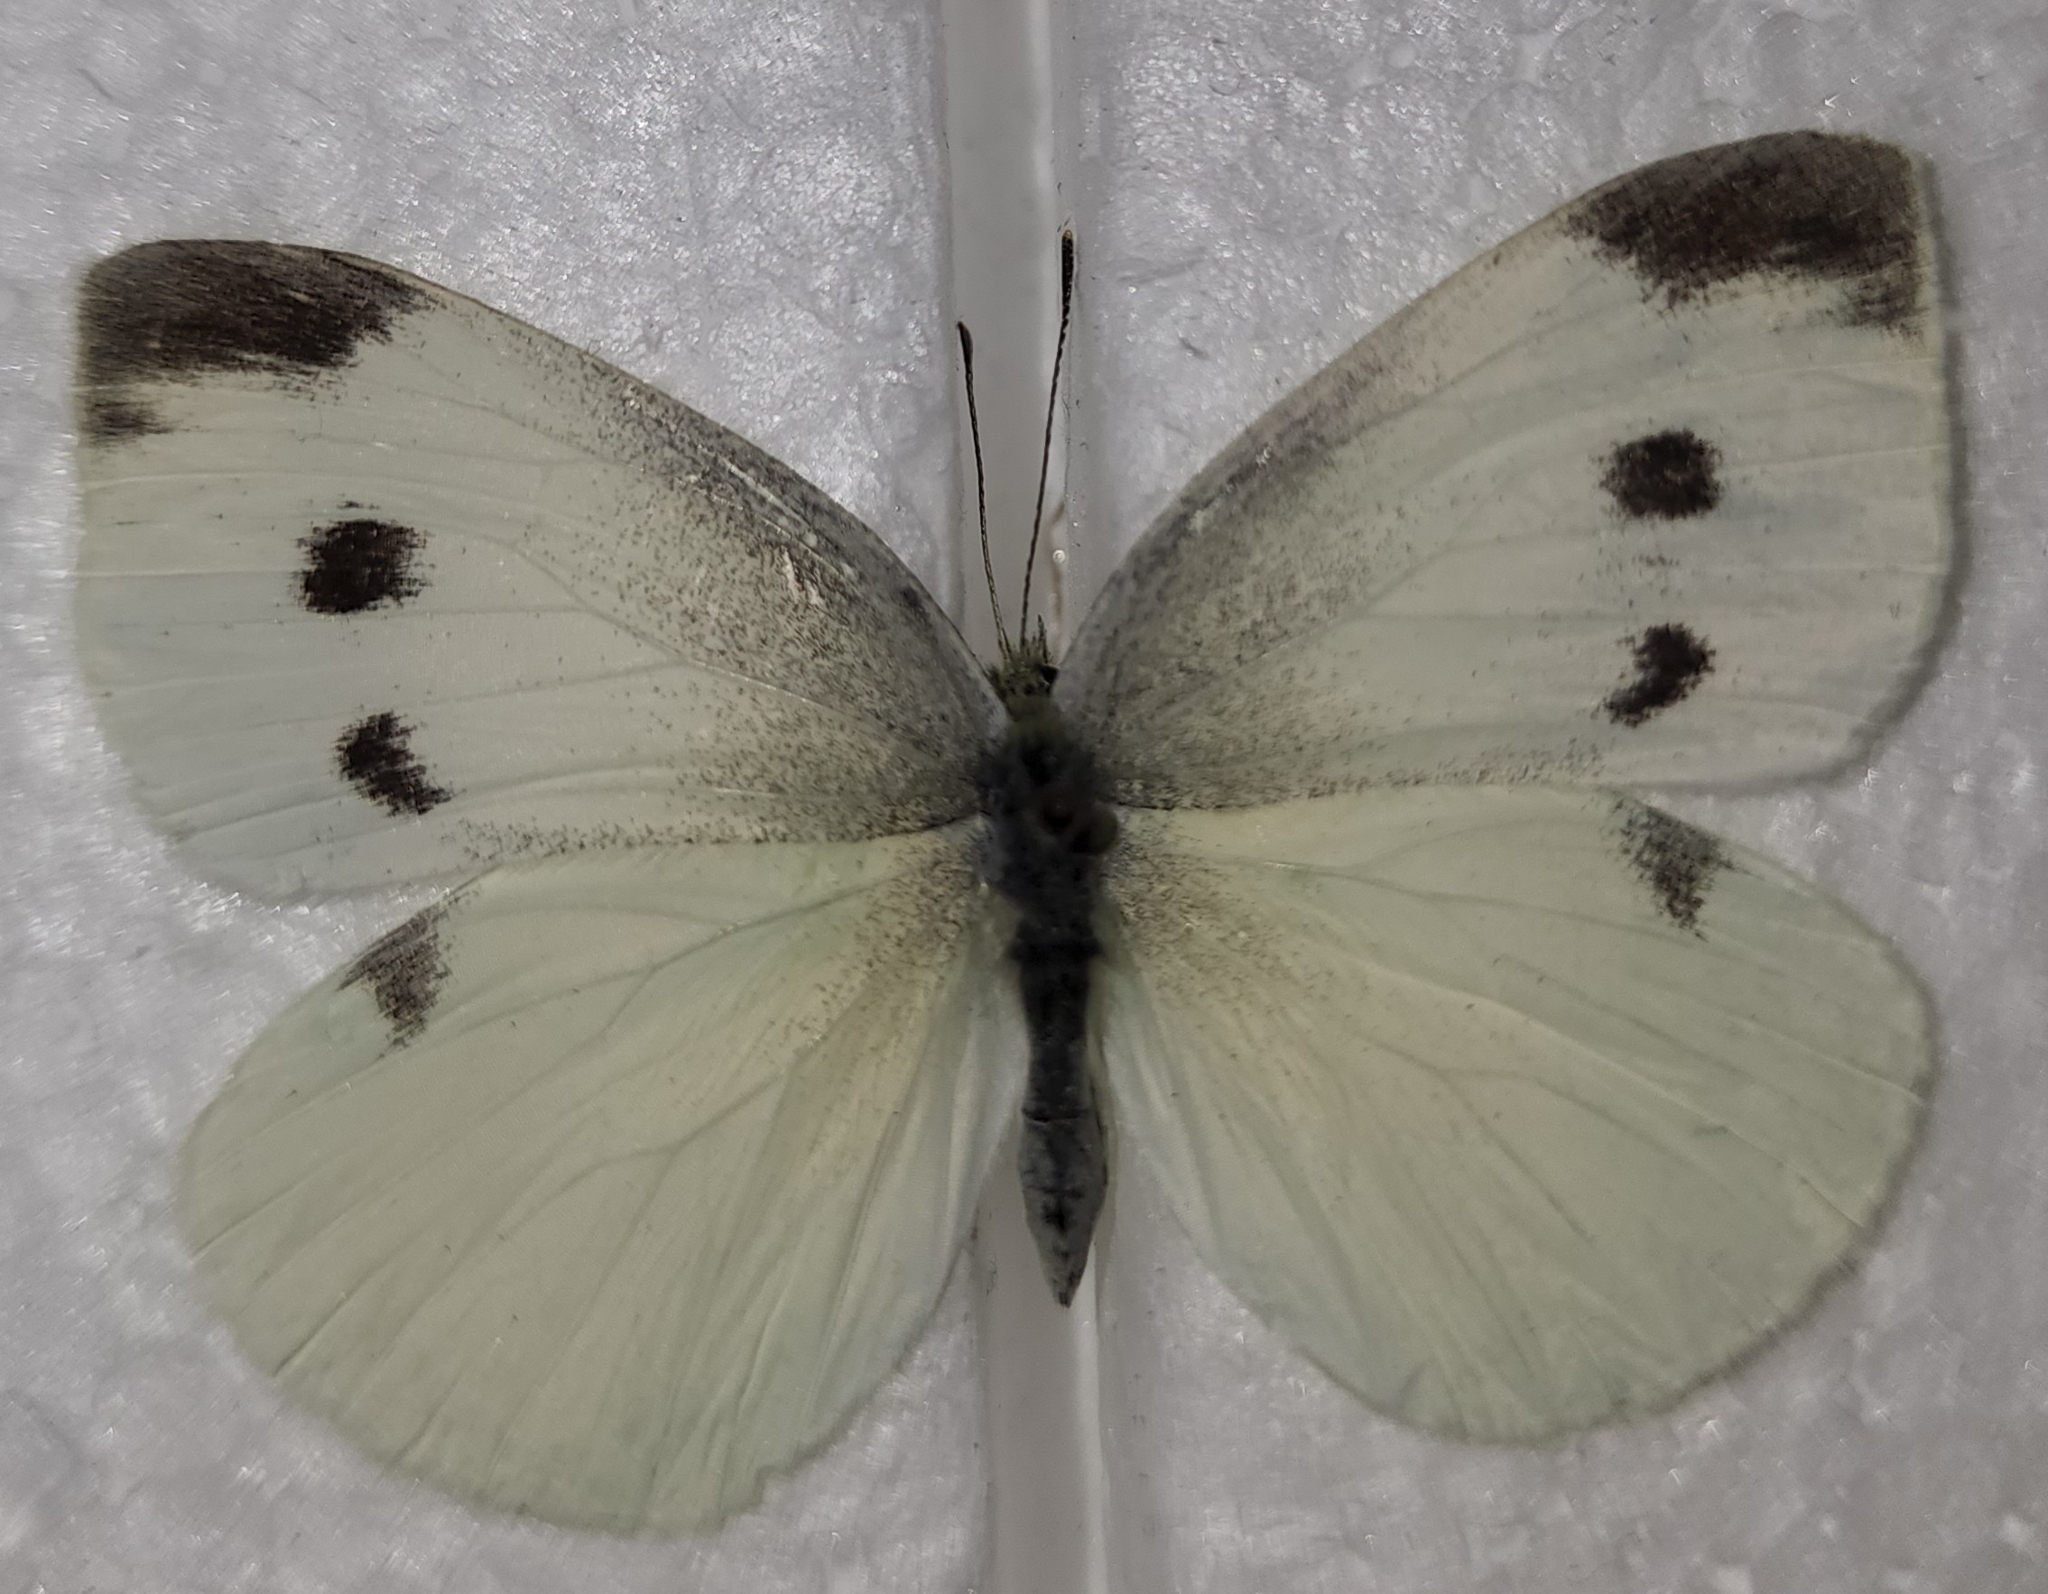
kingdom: Animalia
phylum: Arthropoda
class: Insecta
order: Lepidoptera
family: Pieridae
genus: Pieris
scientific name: Pieris rapae
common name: Small white
